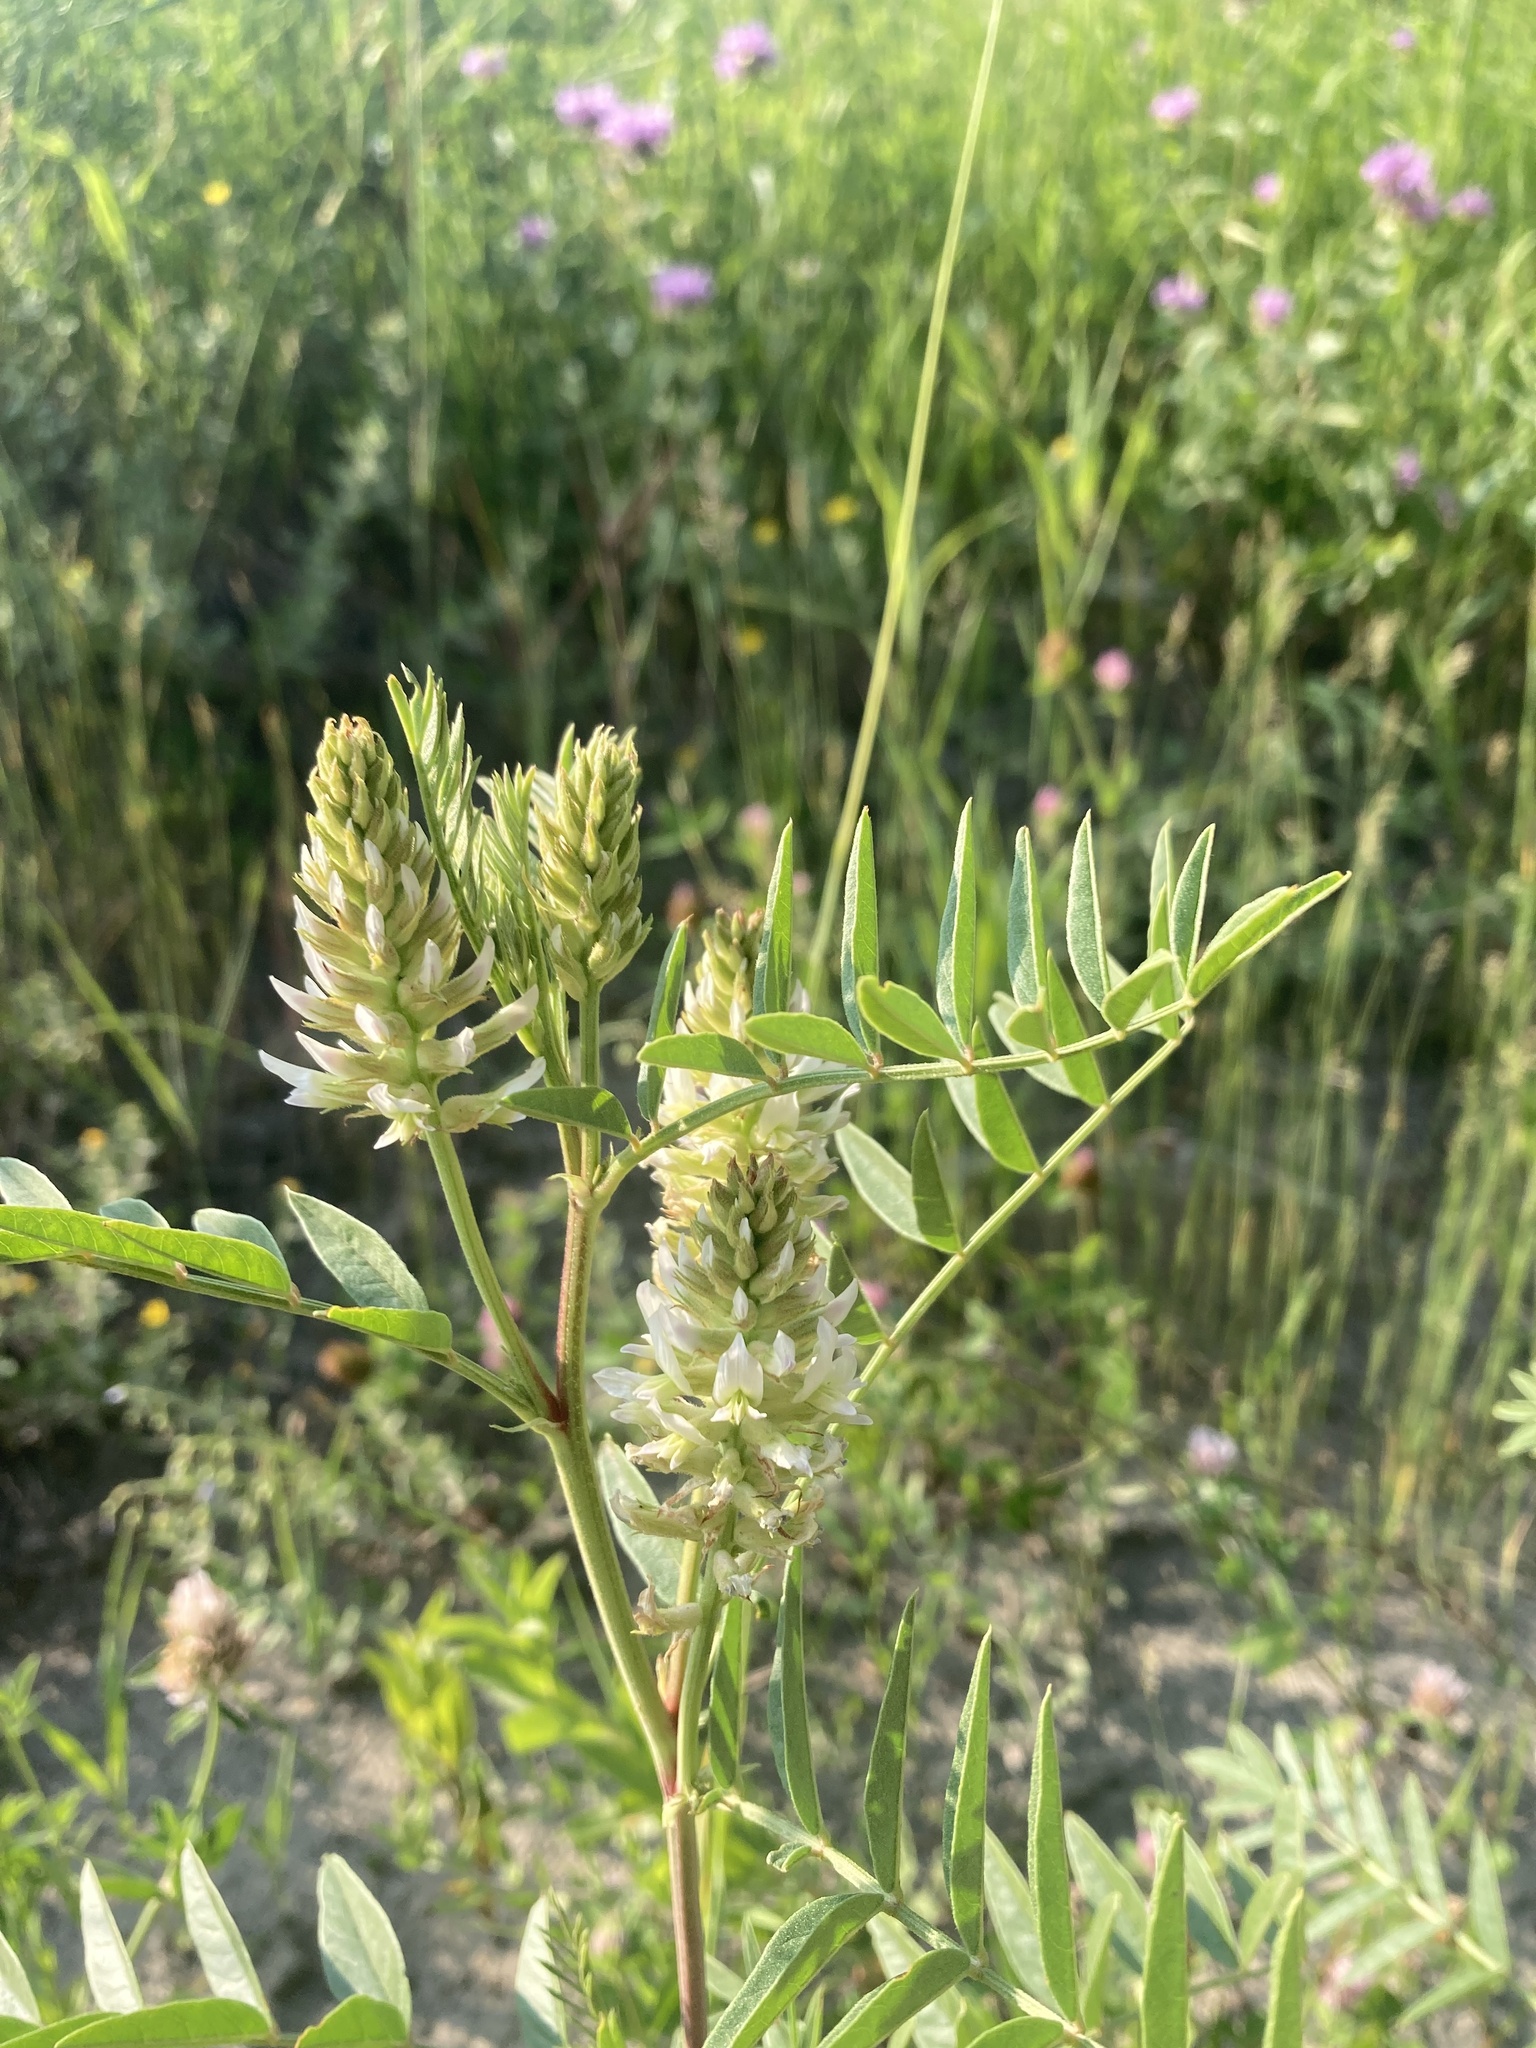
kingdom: Plantae
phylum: Tracheophyta
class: Magnoliopsida
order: Fabales
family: Fabaceae
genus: Glycyrrhiza
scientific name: Glycyrrhiza lepidota
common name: American liquorice
